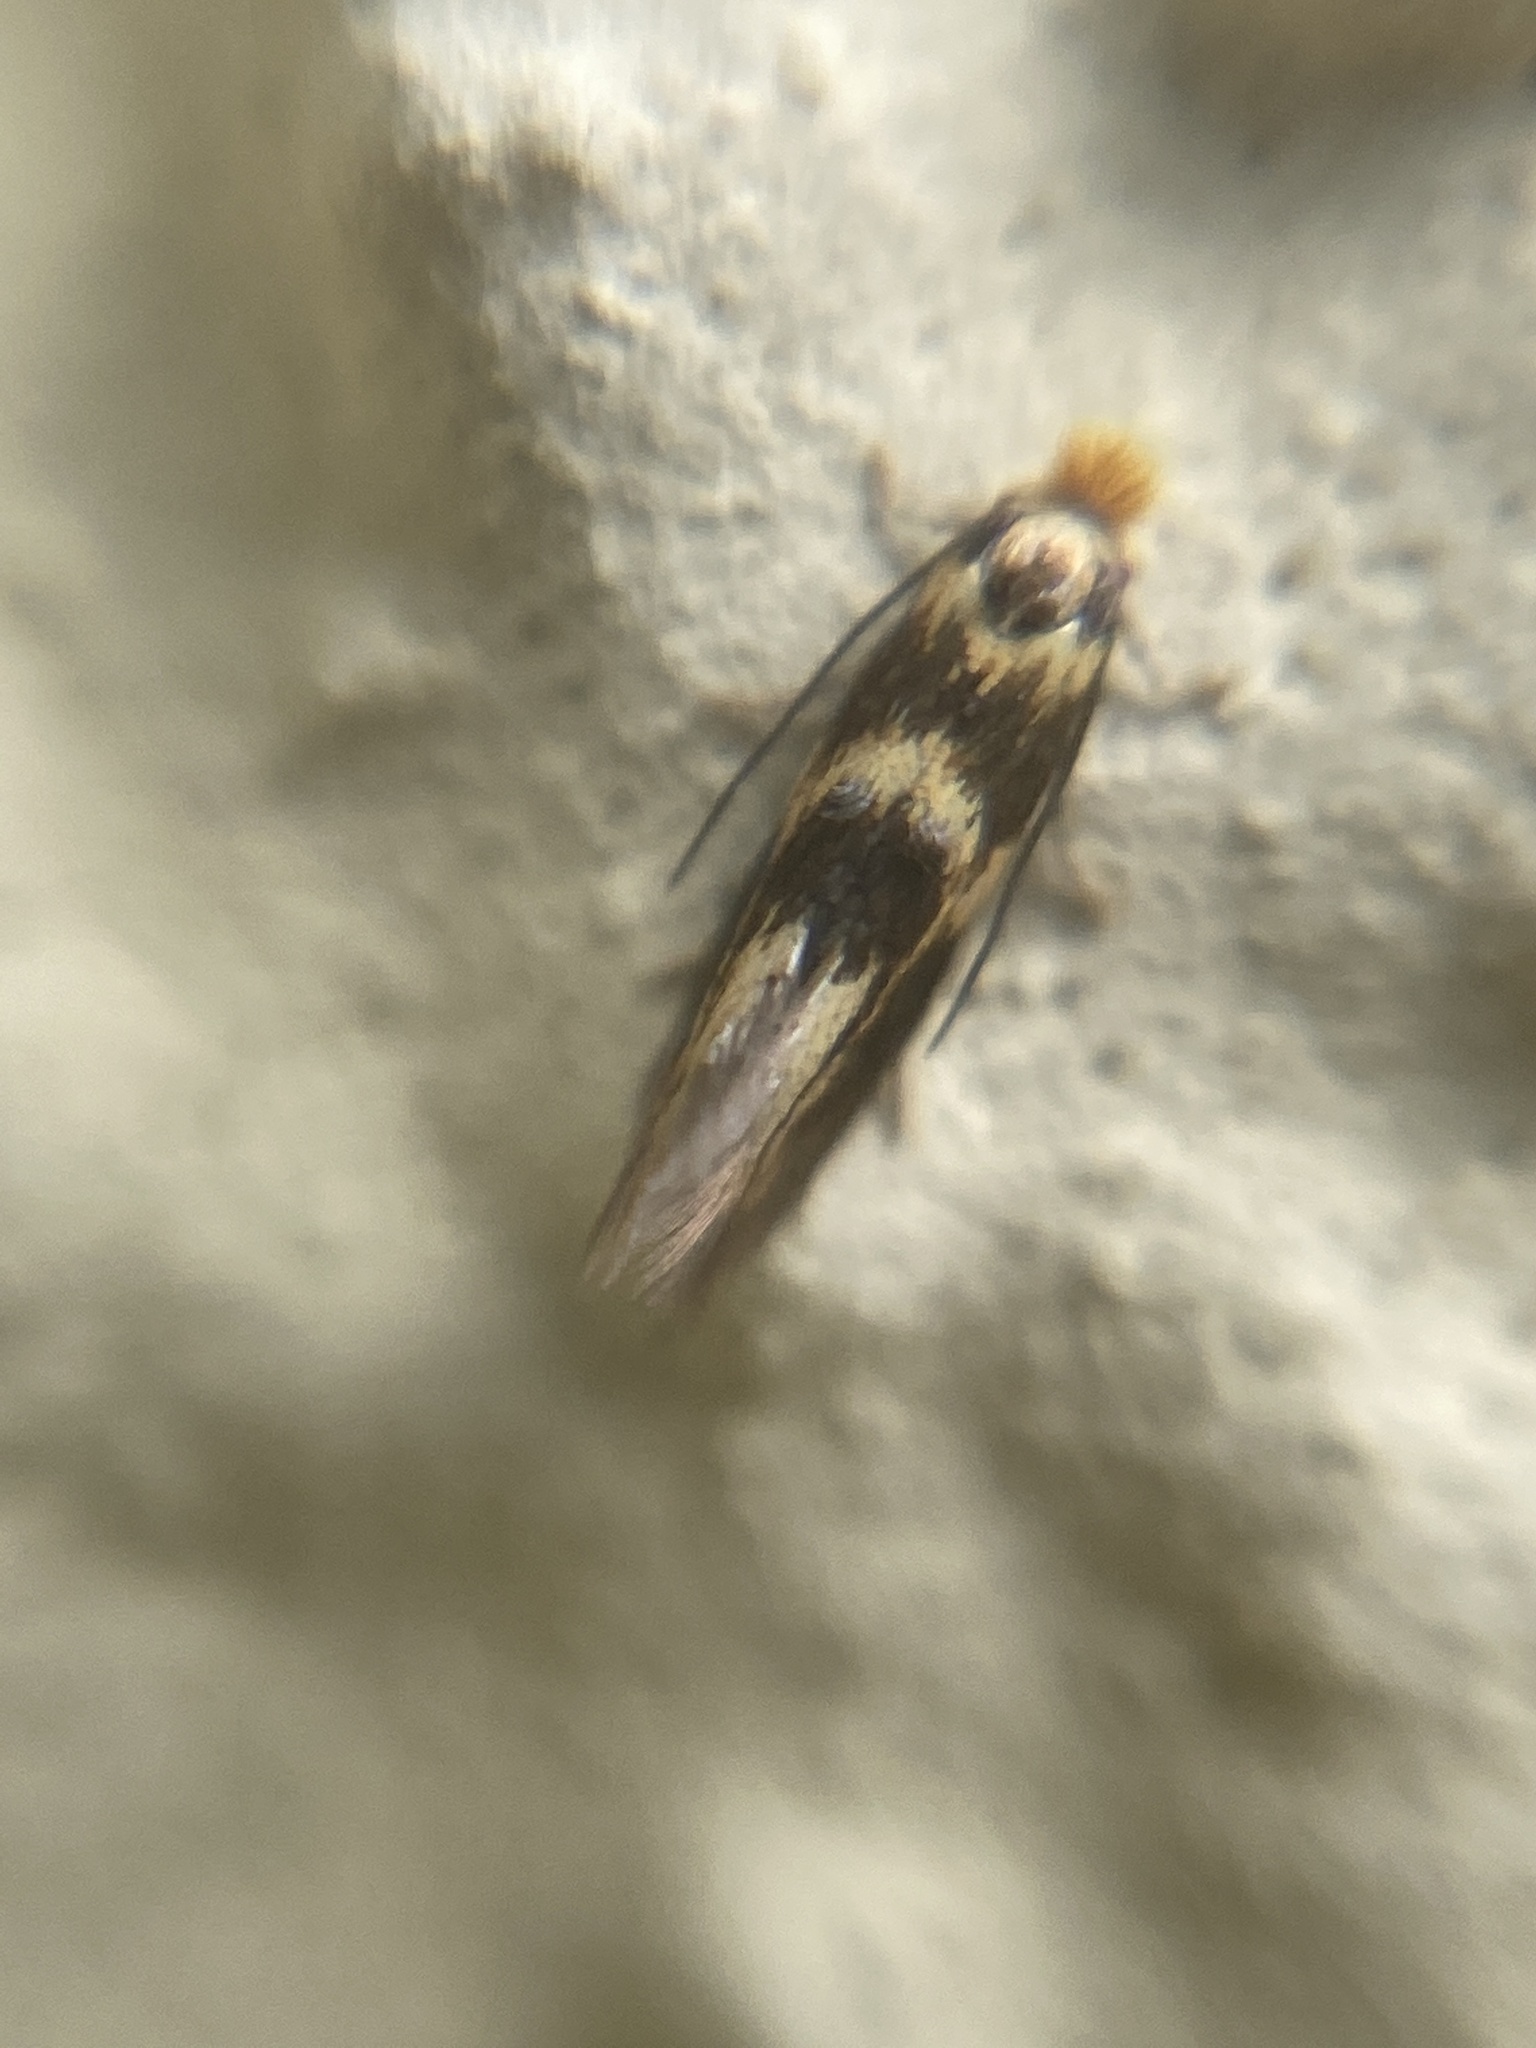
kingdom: Animalia
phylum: Arthropoda
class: Insecta
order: Lepidoptera
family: Bucculatricidae
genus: Bucculatrix
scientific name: Bucculatrix thoracella
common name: Lime bent-wing
